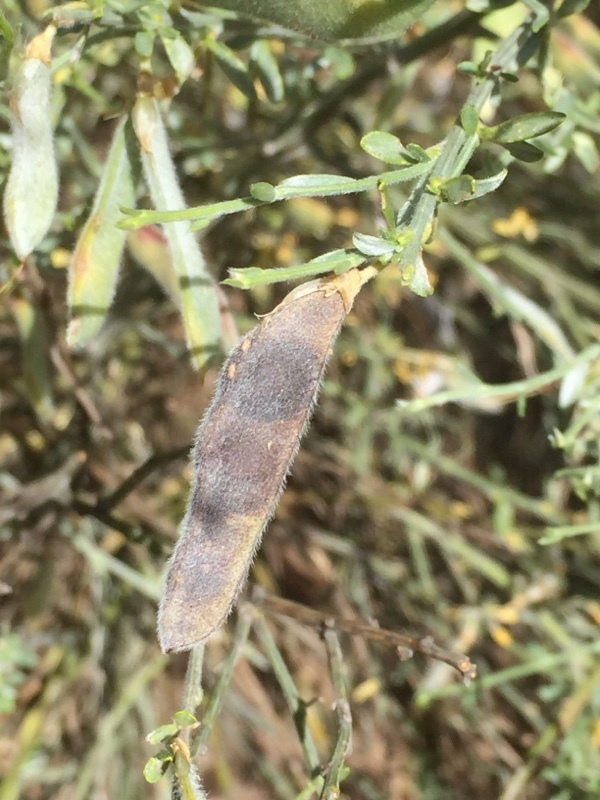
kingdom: Plantae
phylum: Tracheophyta
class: Magnoliopsida
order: Fabales
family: Fabaceae
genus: Cytisus
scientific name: Cytisus multiflorus
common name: White broom
